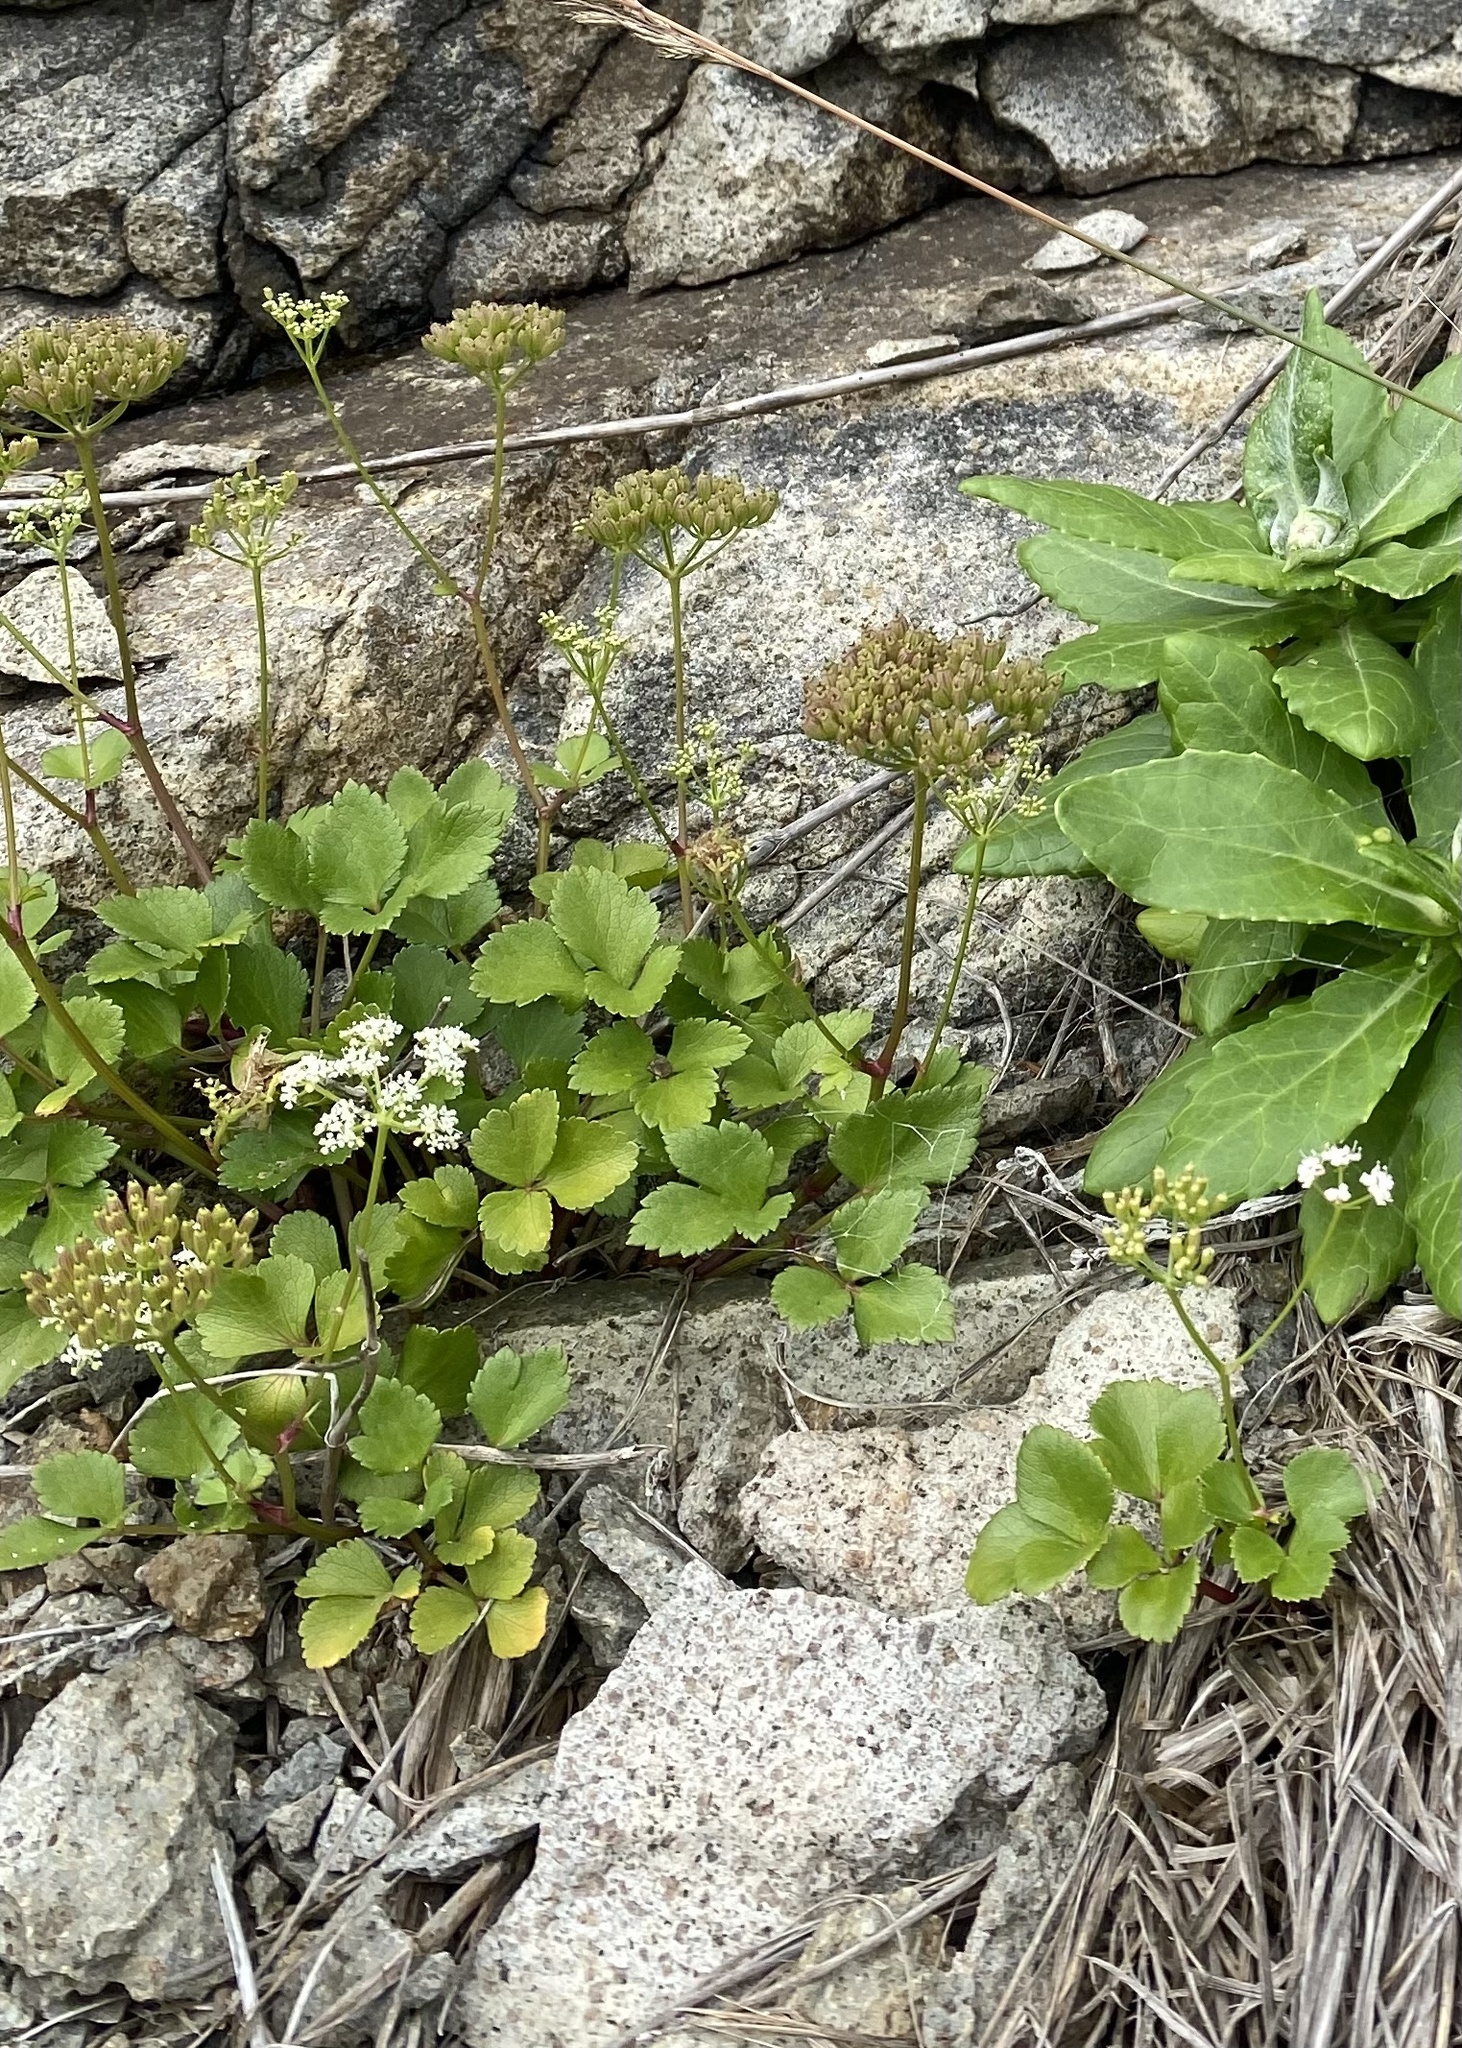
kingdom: Plantae
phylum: Tracheophyta
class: Magnoliopsida
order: Apiales
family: Apiaceae
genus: Ligusticum
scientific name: Ligusticum scothicum
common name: Beach lovage
